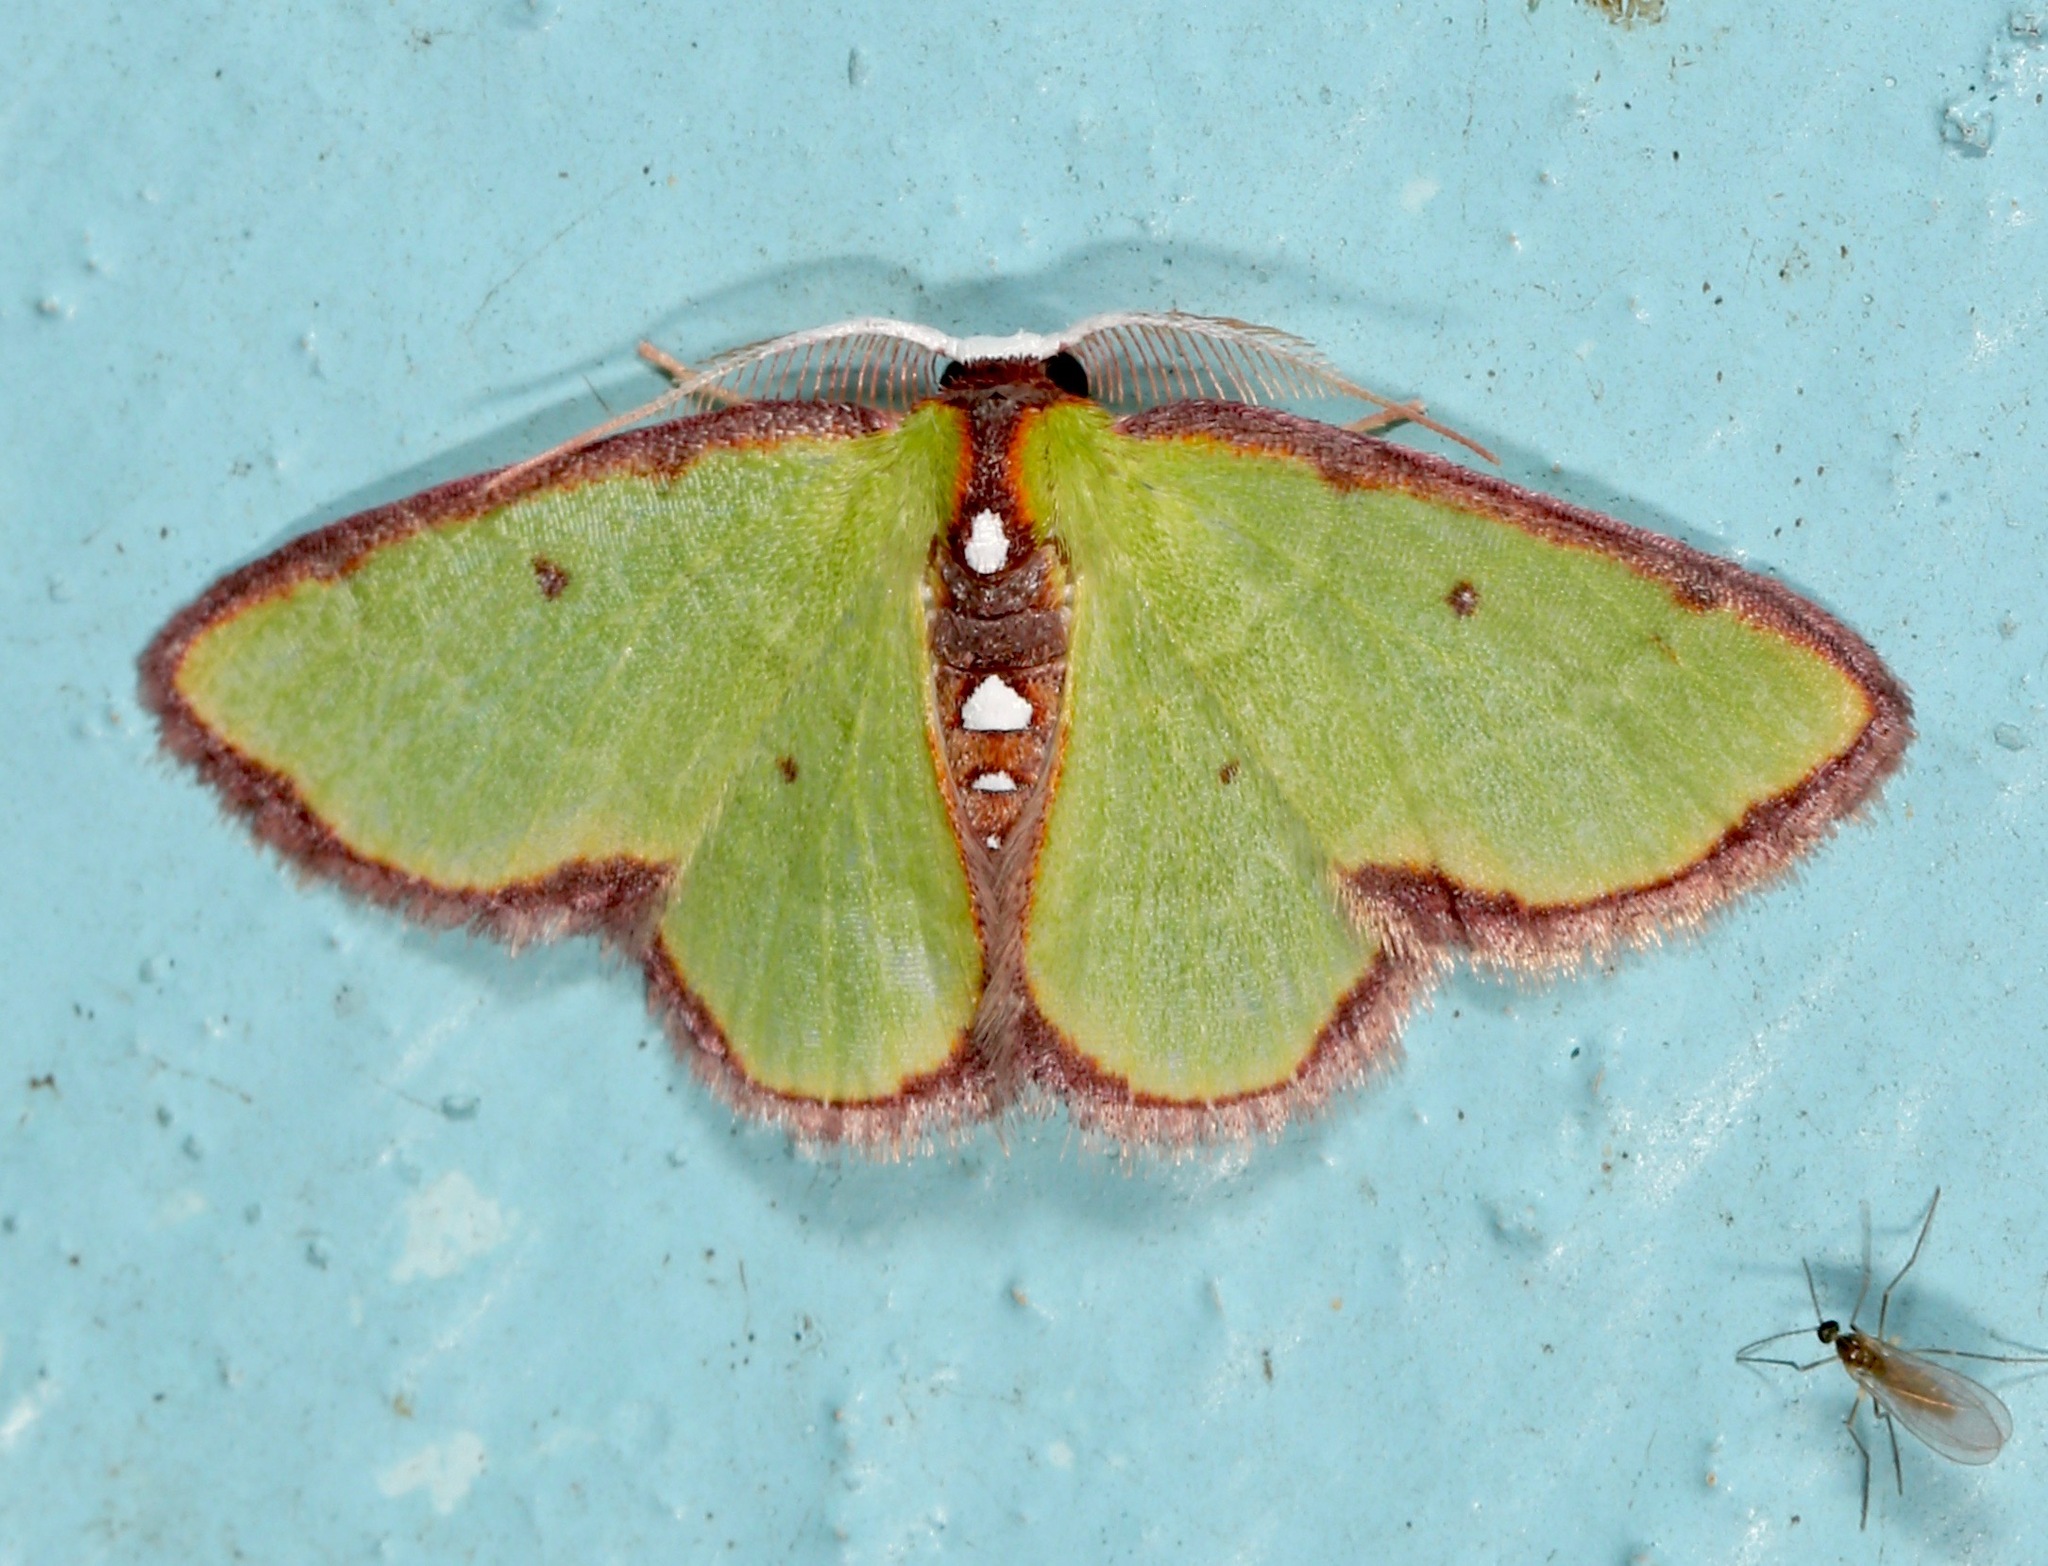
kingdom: Animalia
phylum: Arthropoda
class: Insecta
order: Lepidoptera
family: Geometridae
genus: Synchlora
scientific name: Synchlora cupedinaria
